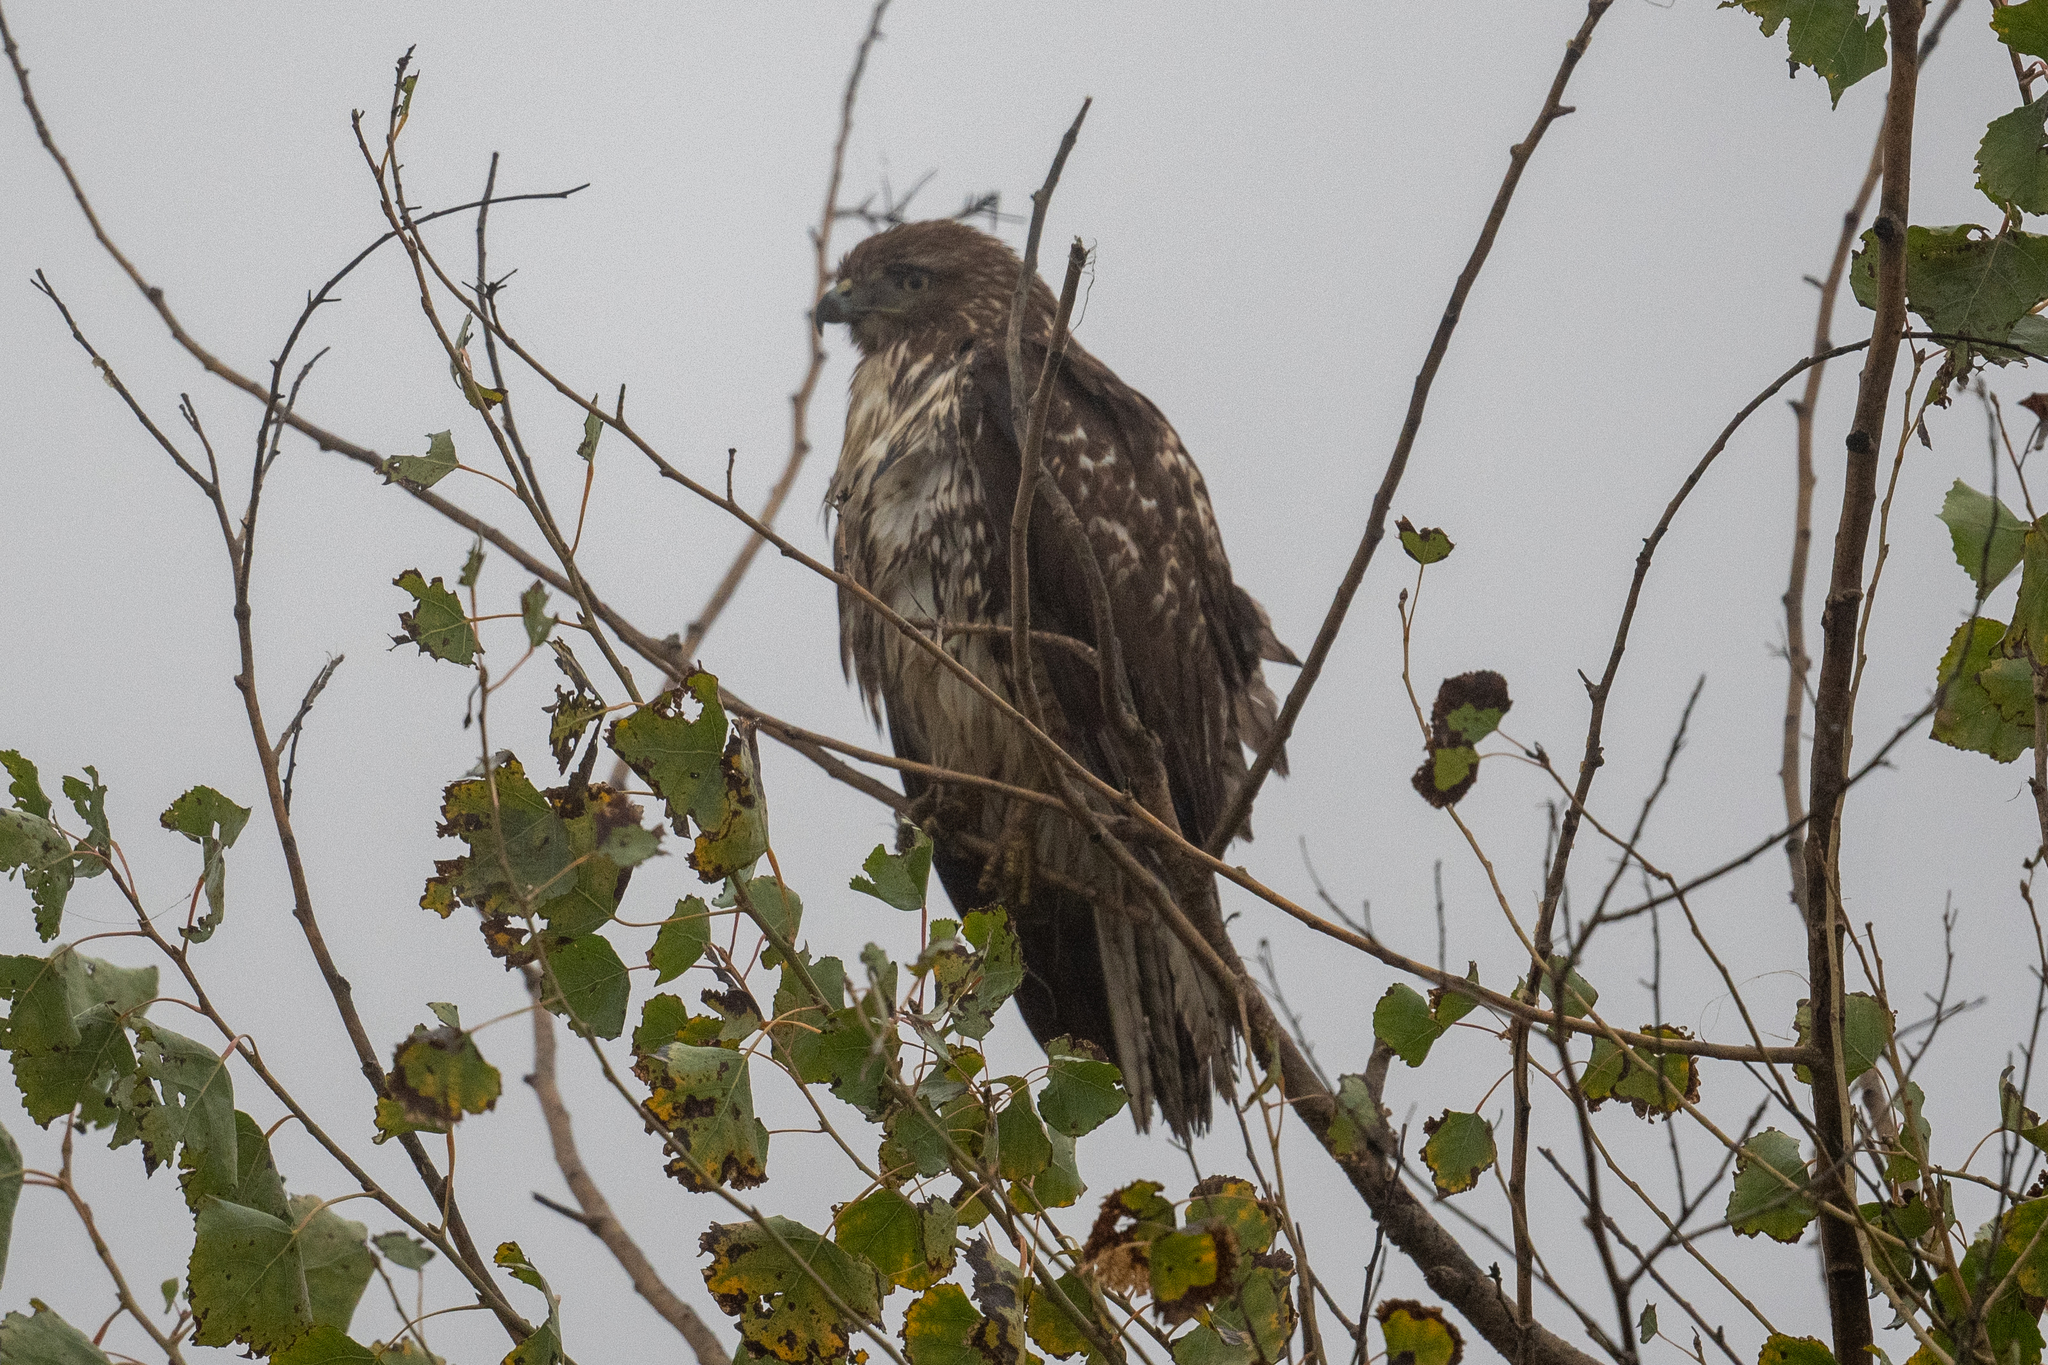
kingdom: Animalia
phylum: Chordata
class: Aves
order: Accipitriformes
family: Accipitridae
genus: Buteo
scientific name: Buteo jamaicensis
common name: Red-tailed hawk
